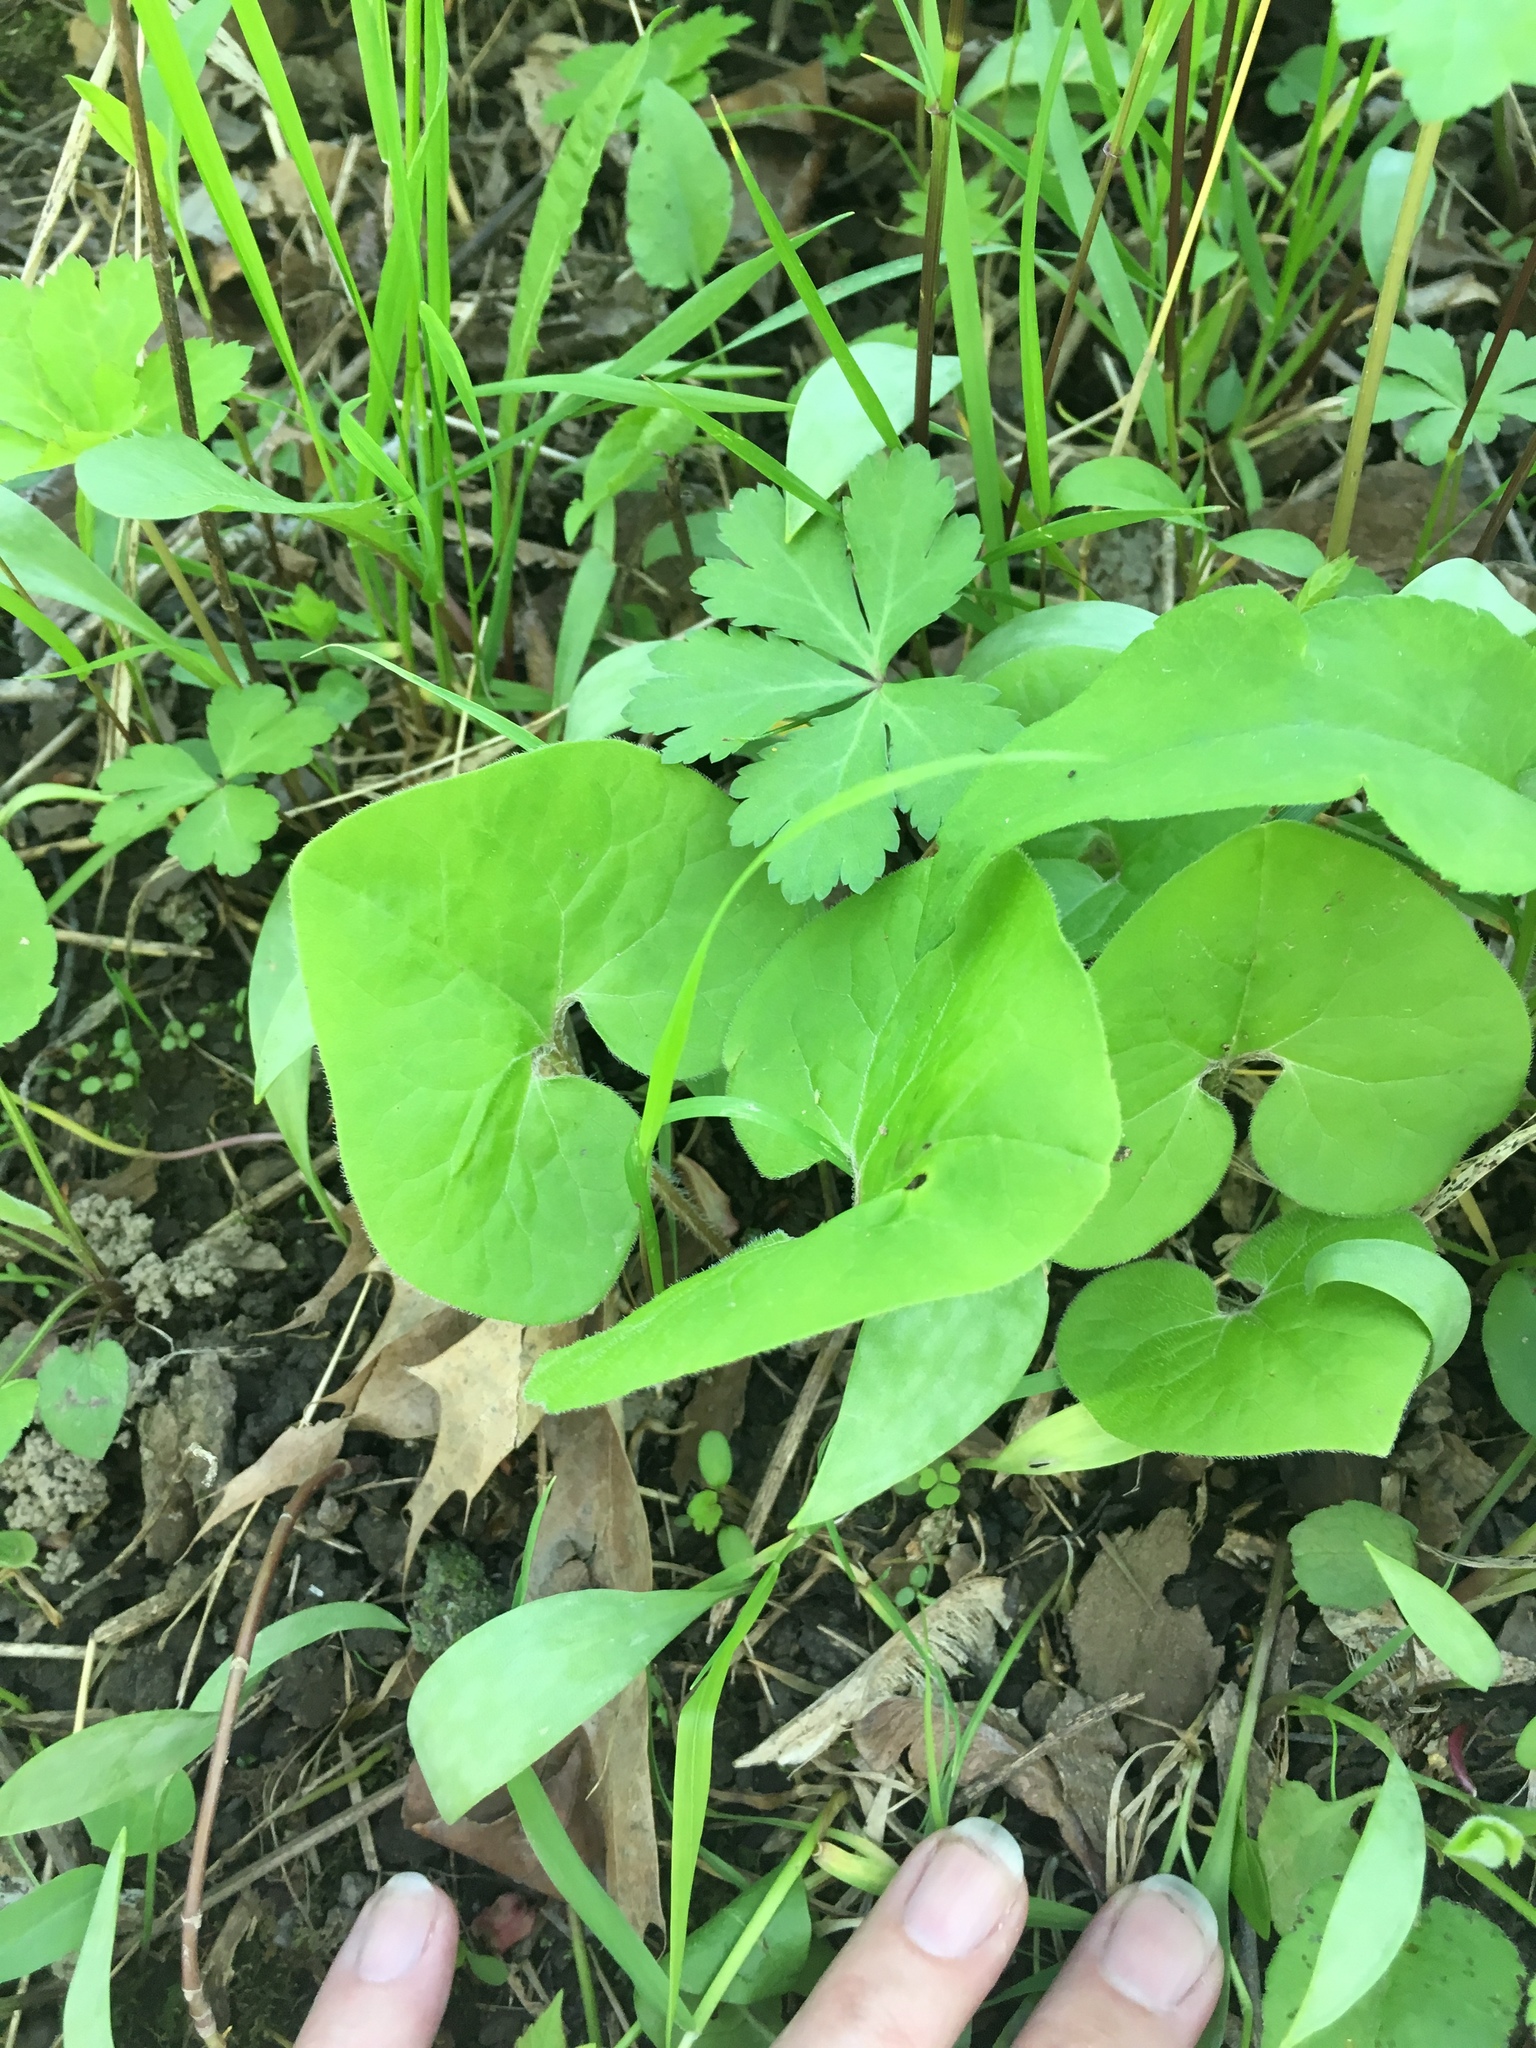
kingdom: Plantae
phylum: Tracheophyta
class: Magnoliopsida
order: Piperales
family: Aristolochiaceae
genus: Asarum
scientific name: Asarum canadense
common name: Wild ginger
